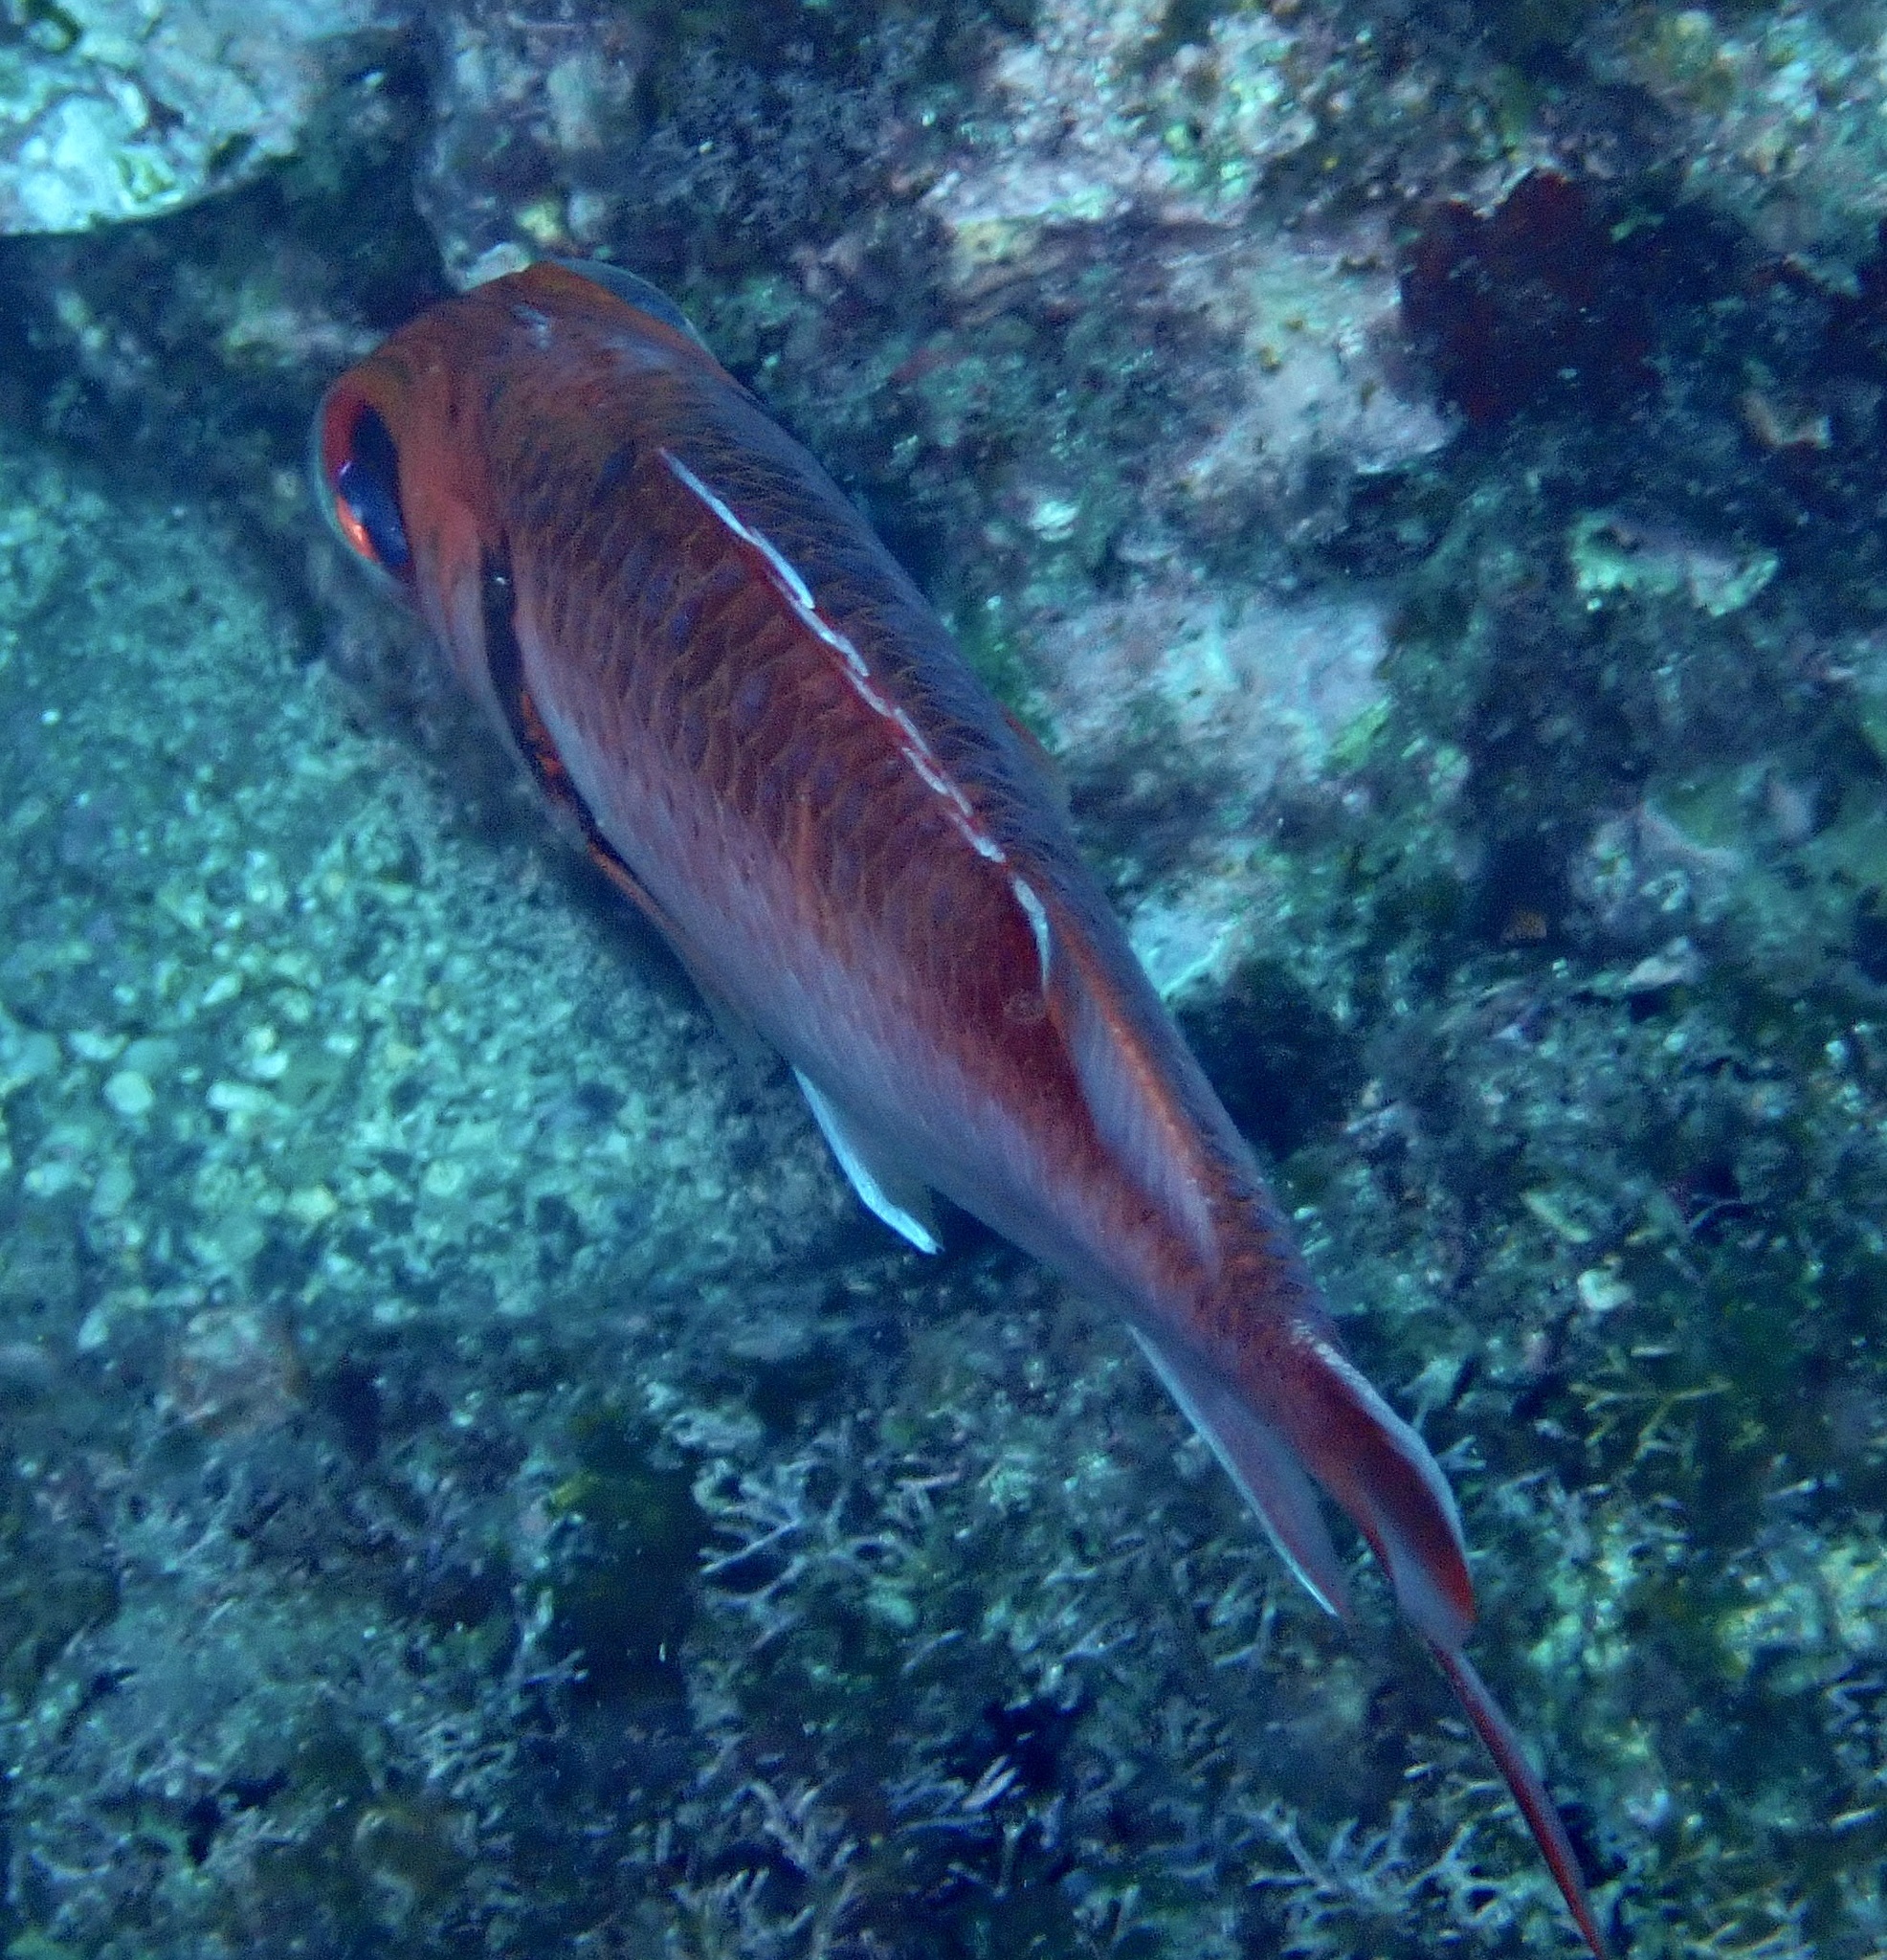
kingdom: Animalia
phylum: Chordata
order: Beryciformes
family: Holocentridae
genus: Myripristis
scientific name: Myripristis jacobus
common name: Blackbar soldierfish
